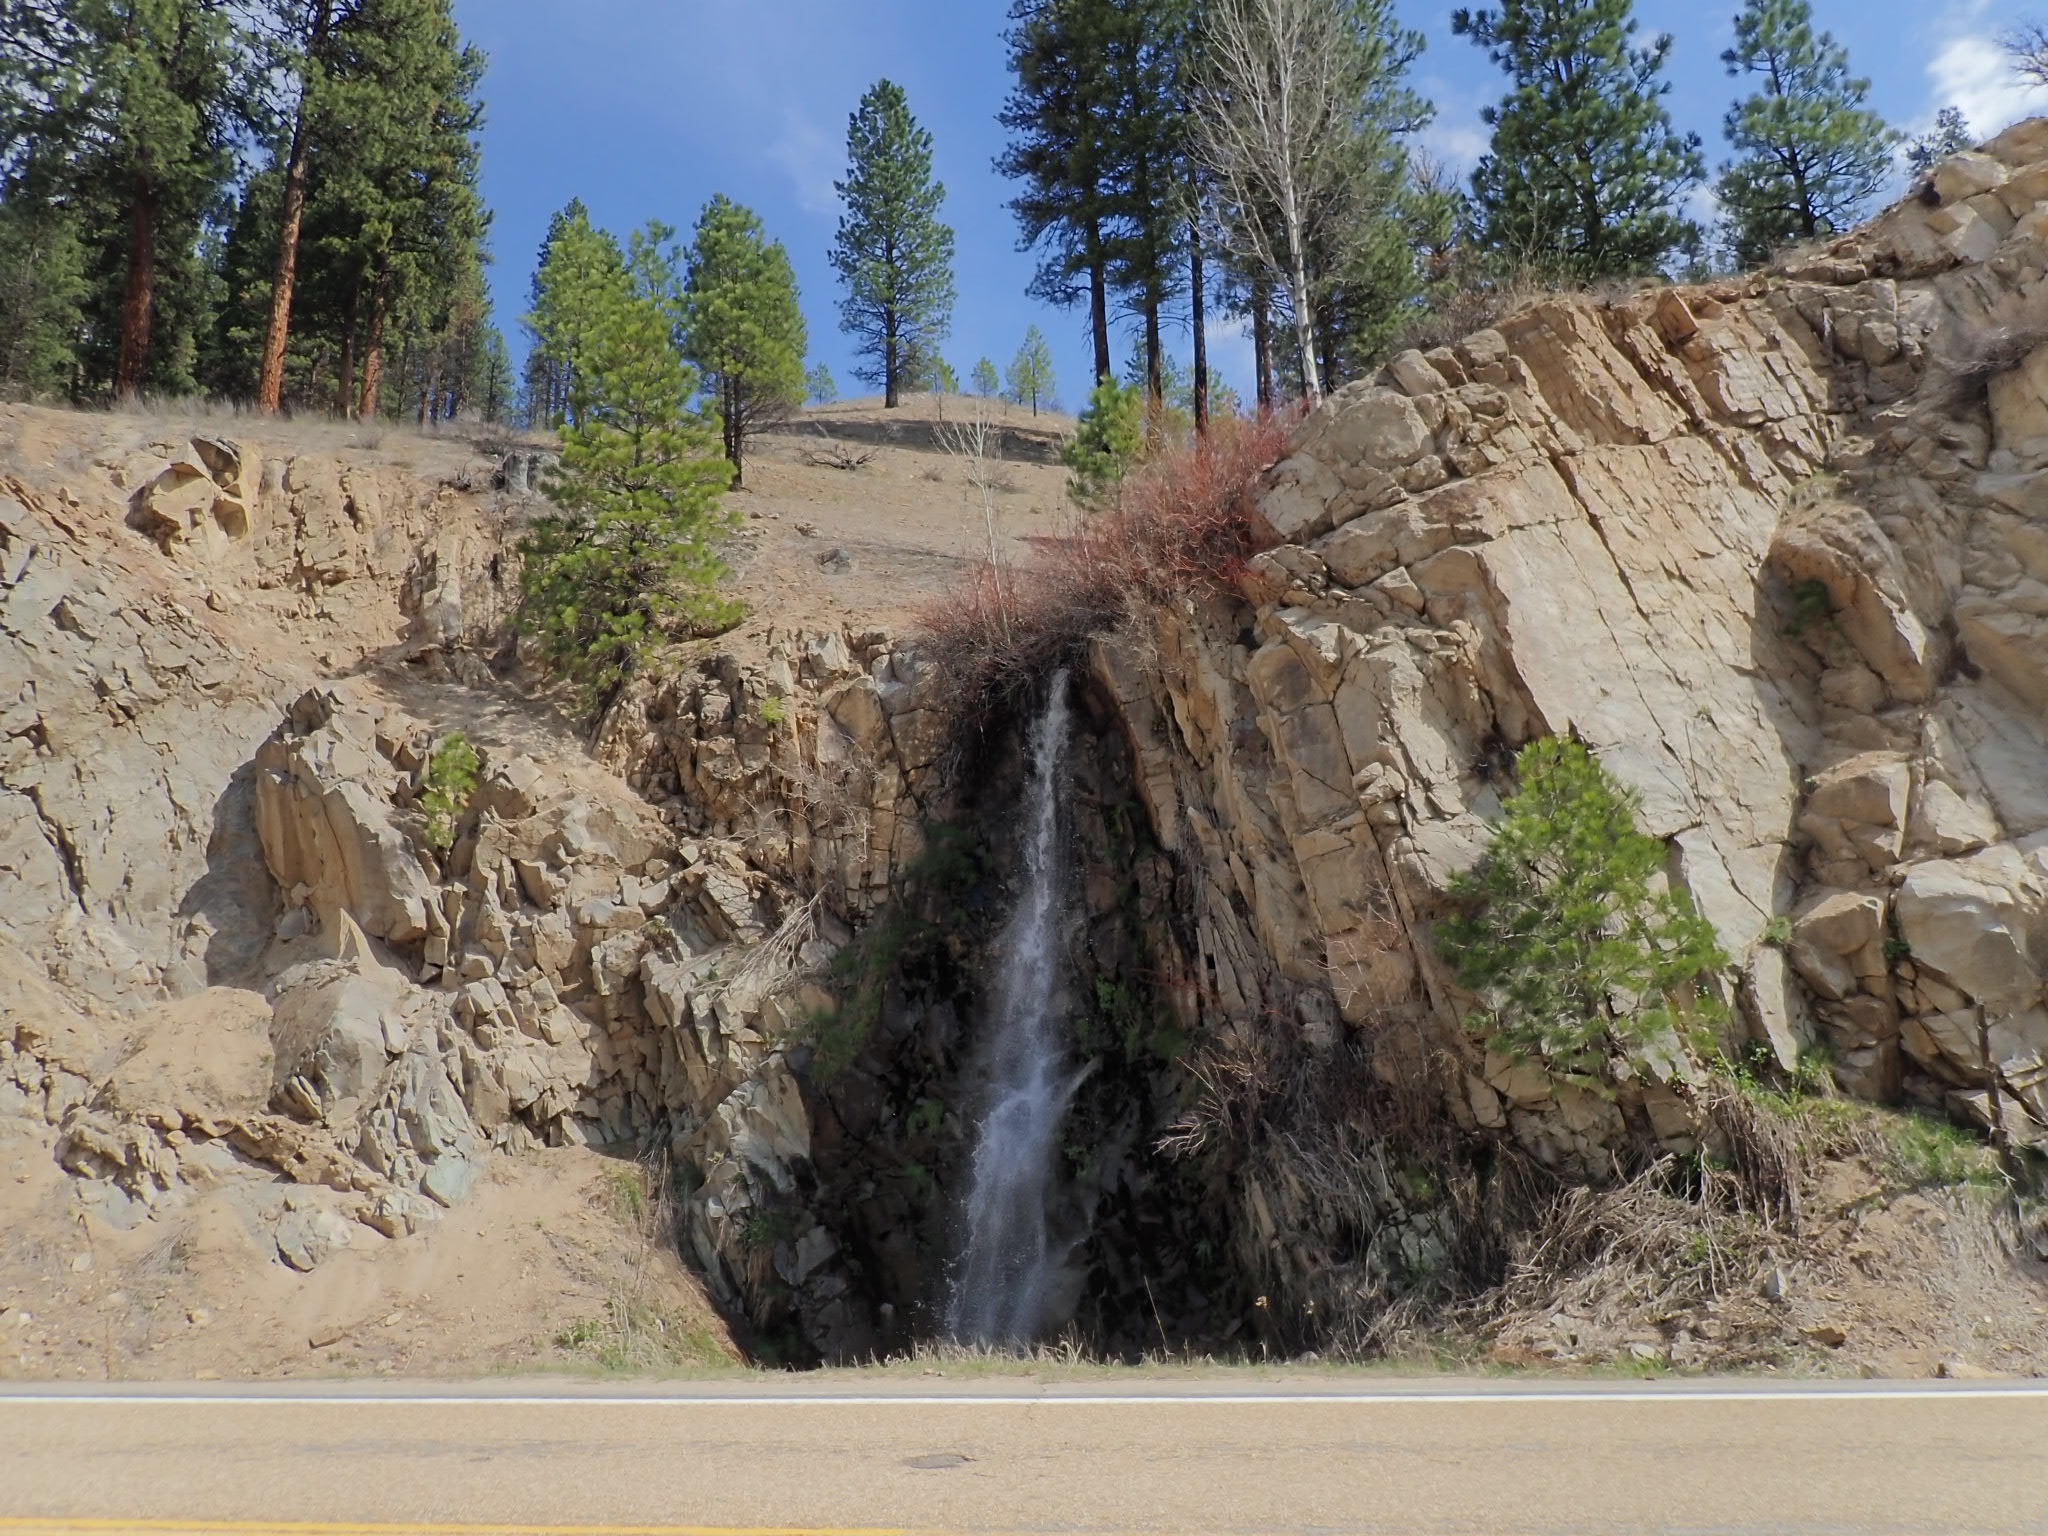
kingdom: Plantae
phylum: Tracheophyta
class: Pinopsida
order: Pinales
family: Pinaceae
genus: Pinus
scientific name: Pinus ponderosa
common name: Western yellow-pine
